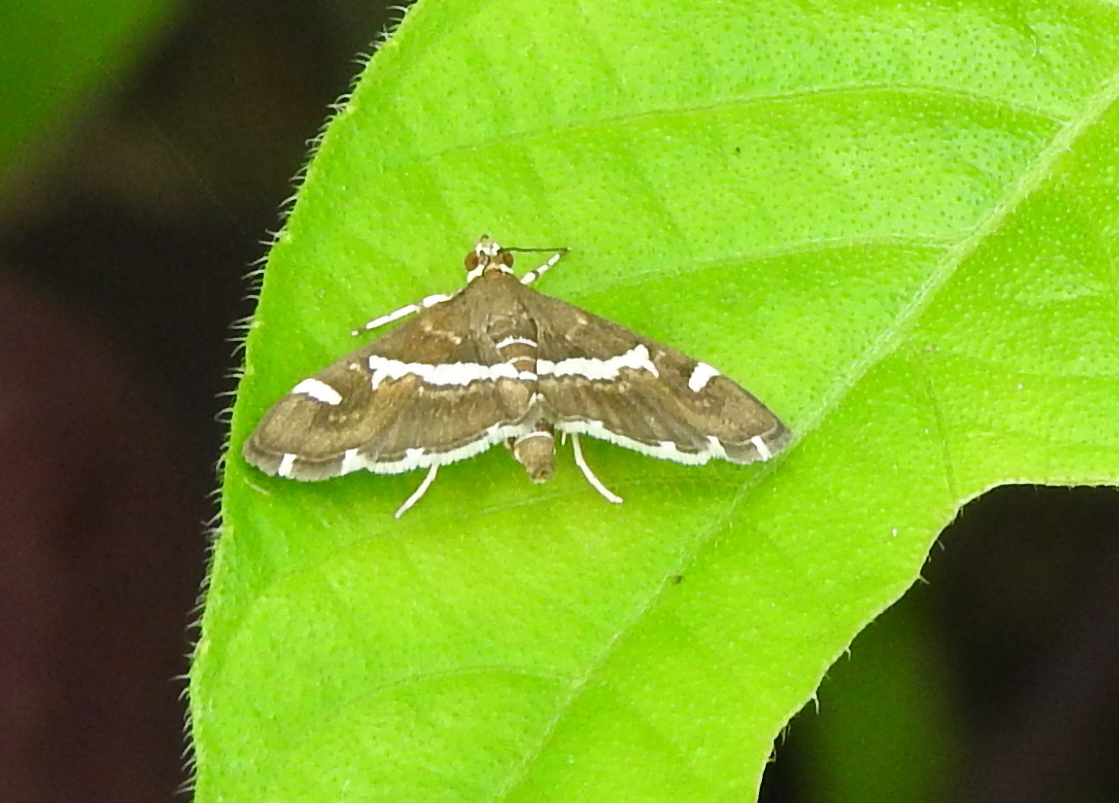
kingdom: Animalia
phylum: Arthropoda
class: Insecta
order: Lepidoptera
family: Crambidae
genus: Spoladea
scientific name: Spoladea recurvalis
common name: Beet webworm moth
